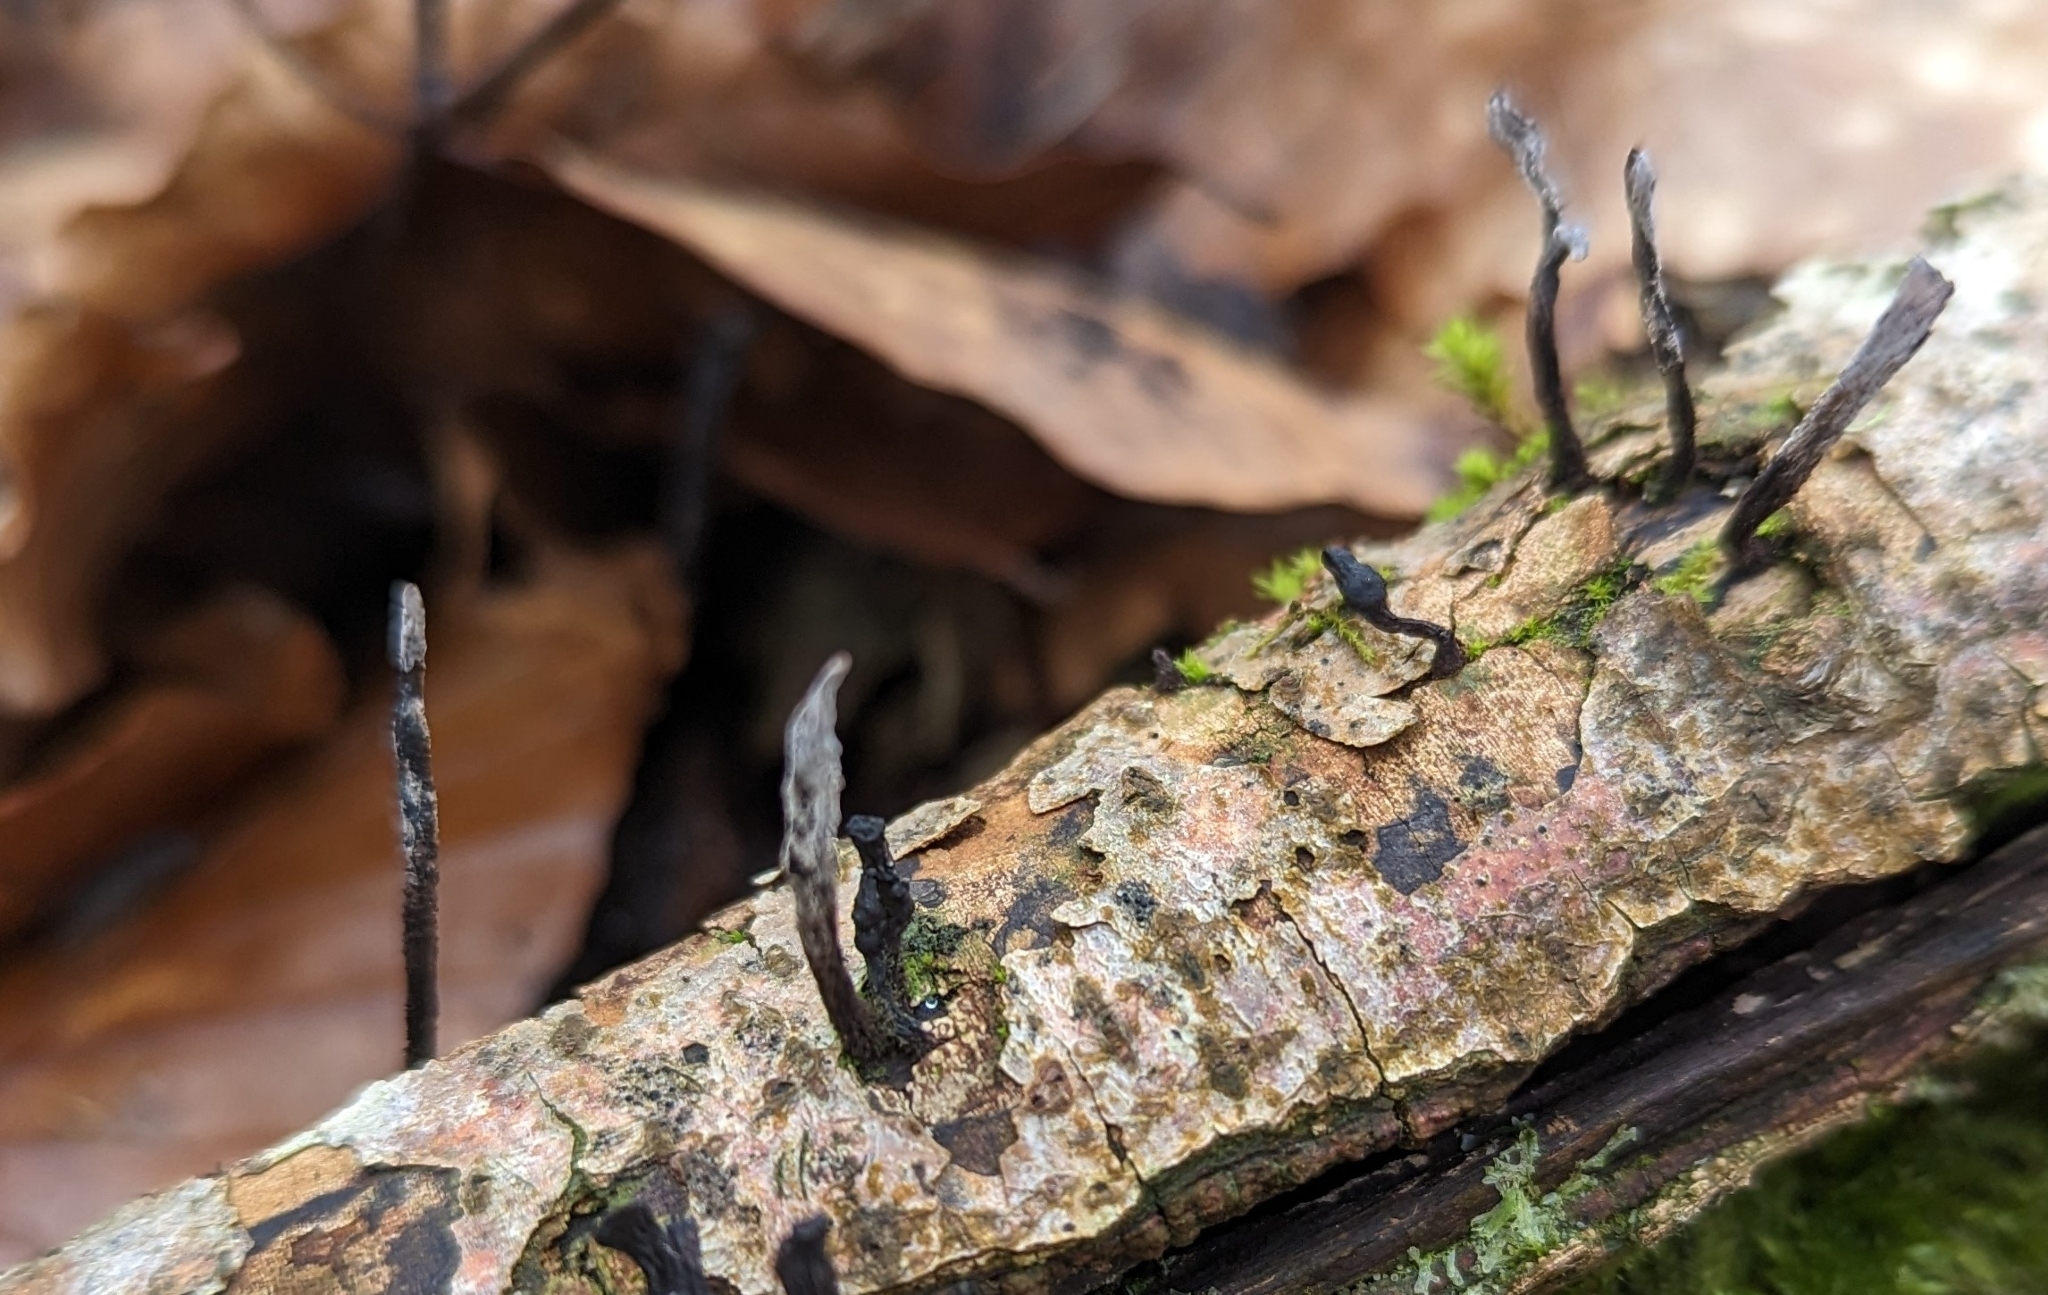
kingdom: Fungi
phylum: Ascomycota
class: Sordariomycetes
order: Xylariales
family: Xylariaceae
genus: Xylaria
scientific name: Xylaria hypoxylon
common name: Candle-snuff fungus
